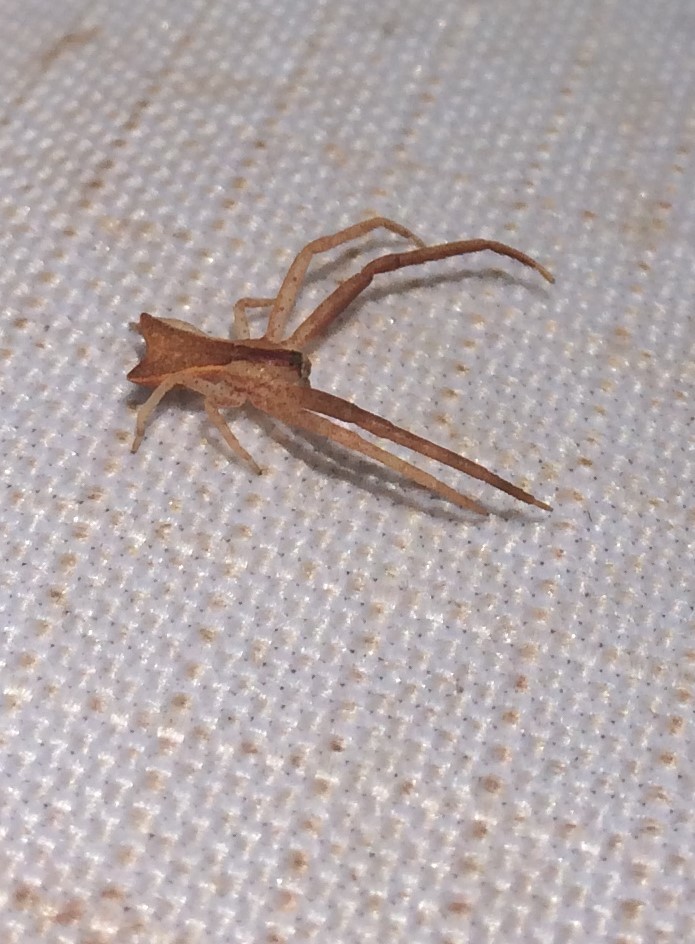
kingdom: Animalia
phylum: Arthropoda
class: Arachnida
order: Araneae
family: Thomisidae
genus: Sidymella
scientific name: Sidymella trapezia
